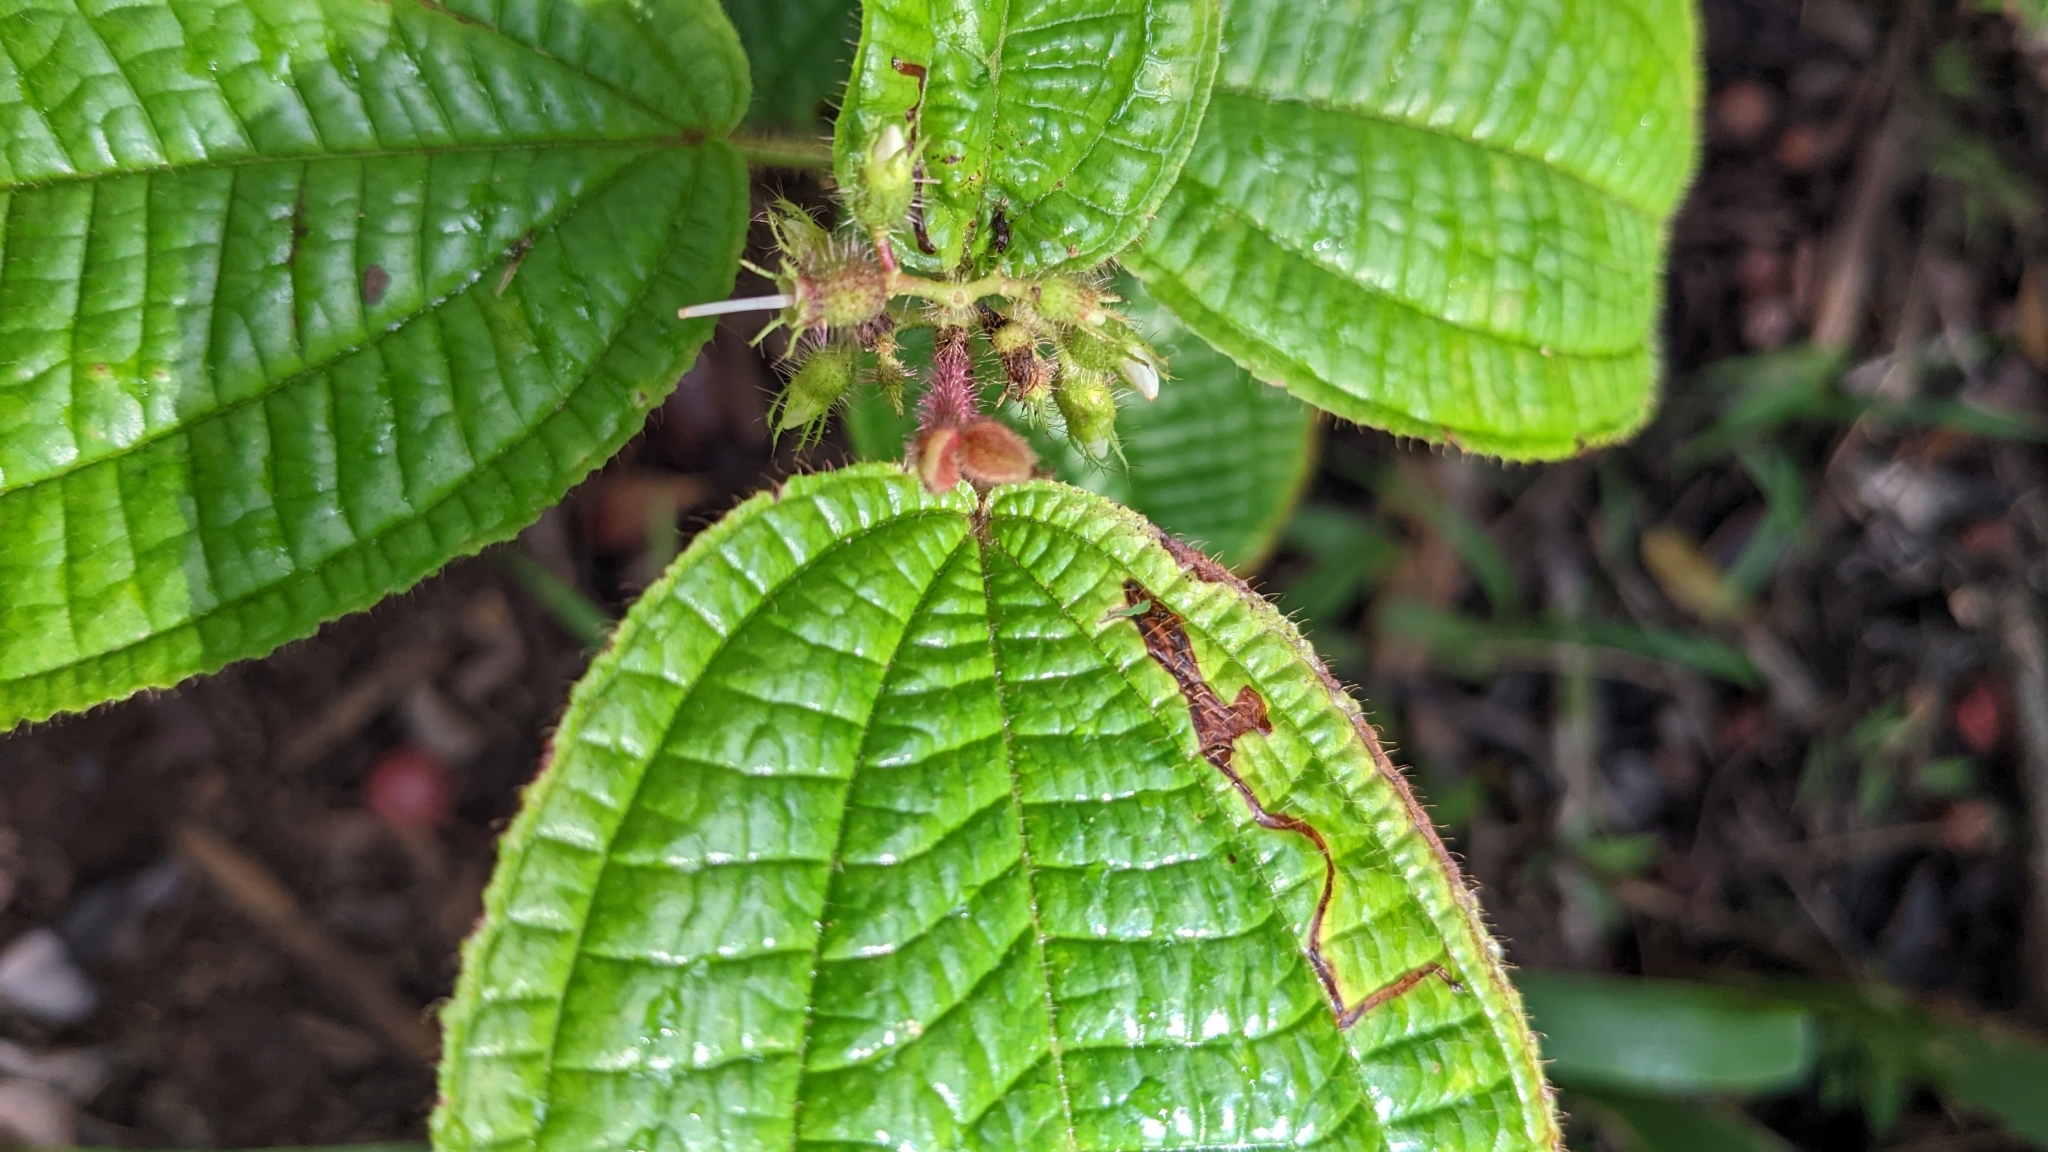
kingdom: Plantae
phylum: Tracheophyta
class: Magnoliopsida
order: Myrtales
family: Melastomataceae
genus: Miconia
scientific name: Miconia crenata
